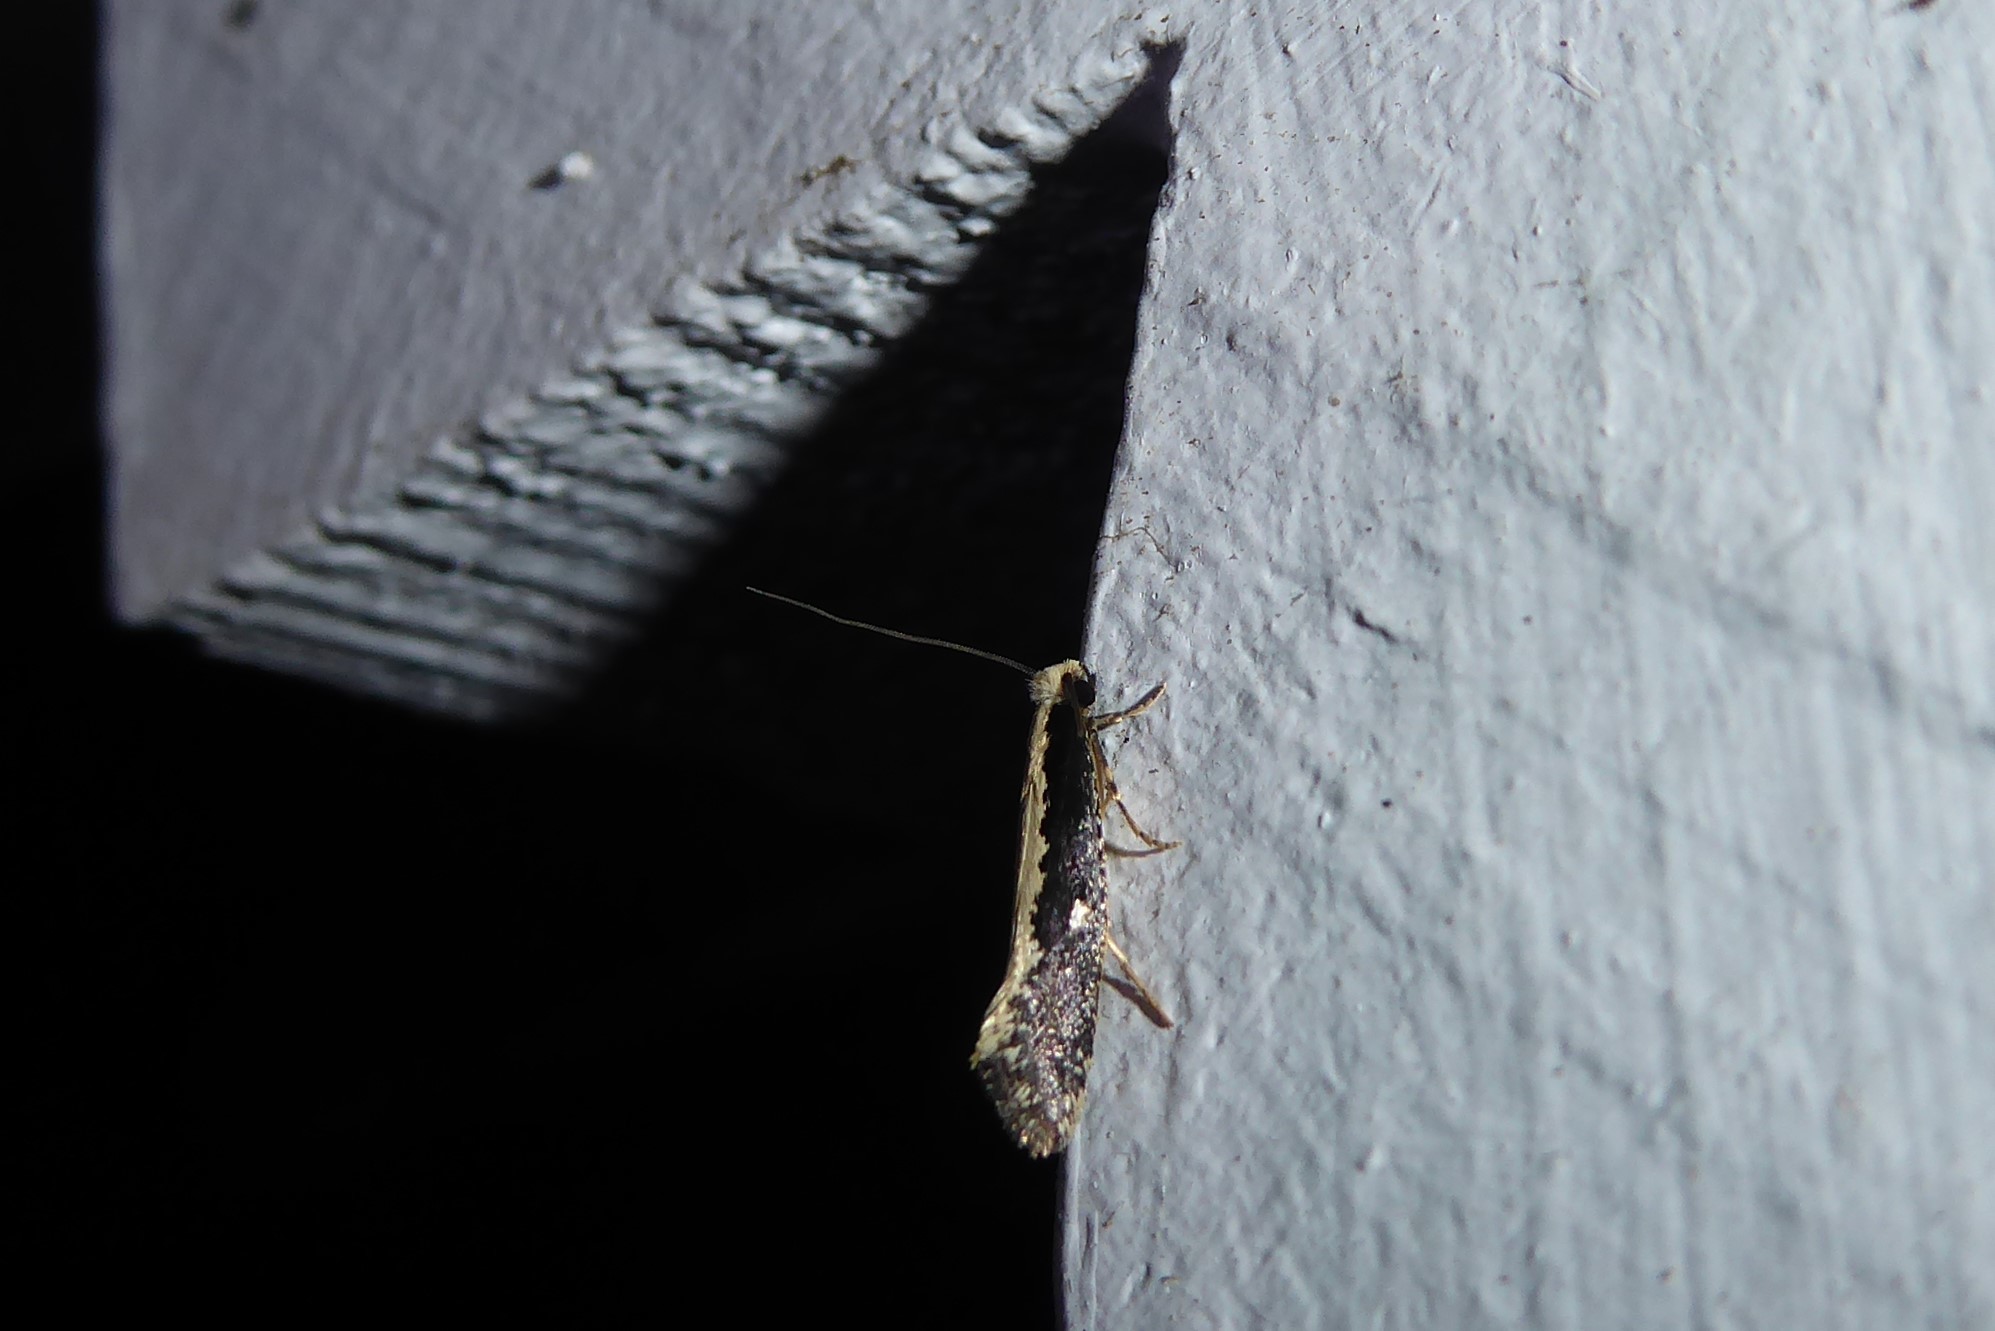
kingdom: Animalia
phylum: Arthropoda
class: Insecta
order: Lepidoptera
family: Tineidae
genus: Monopis
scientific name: Monopis ethelella
